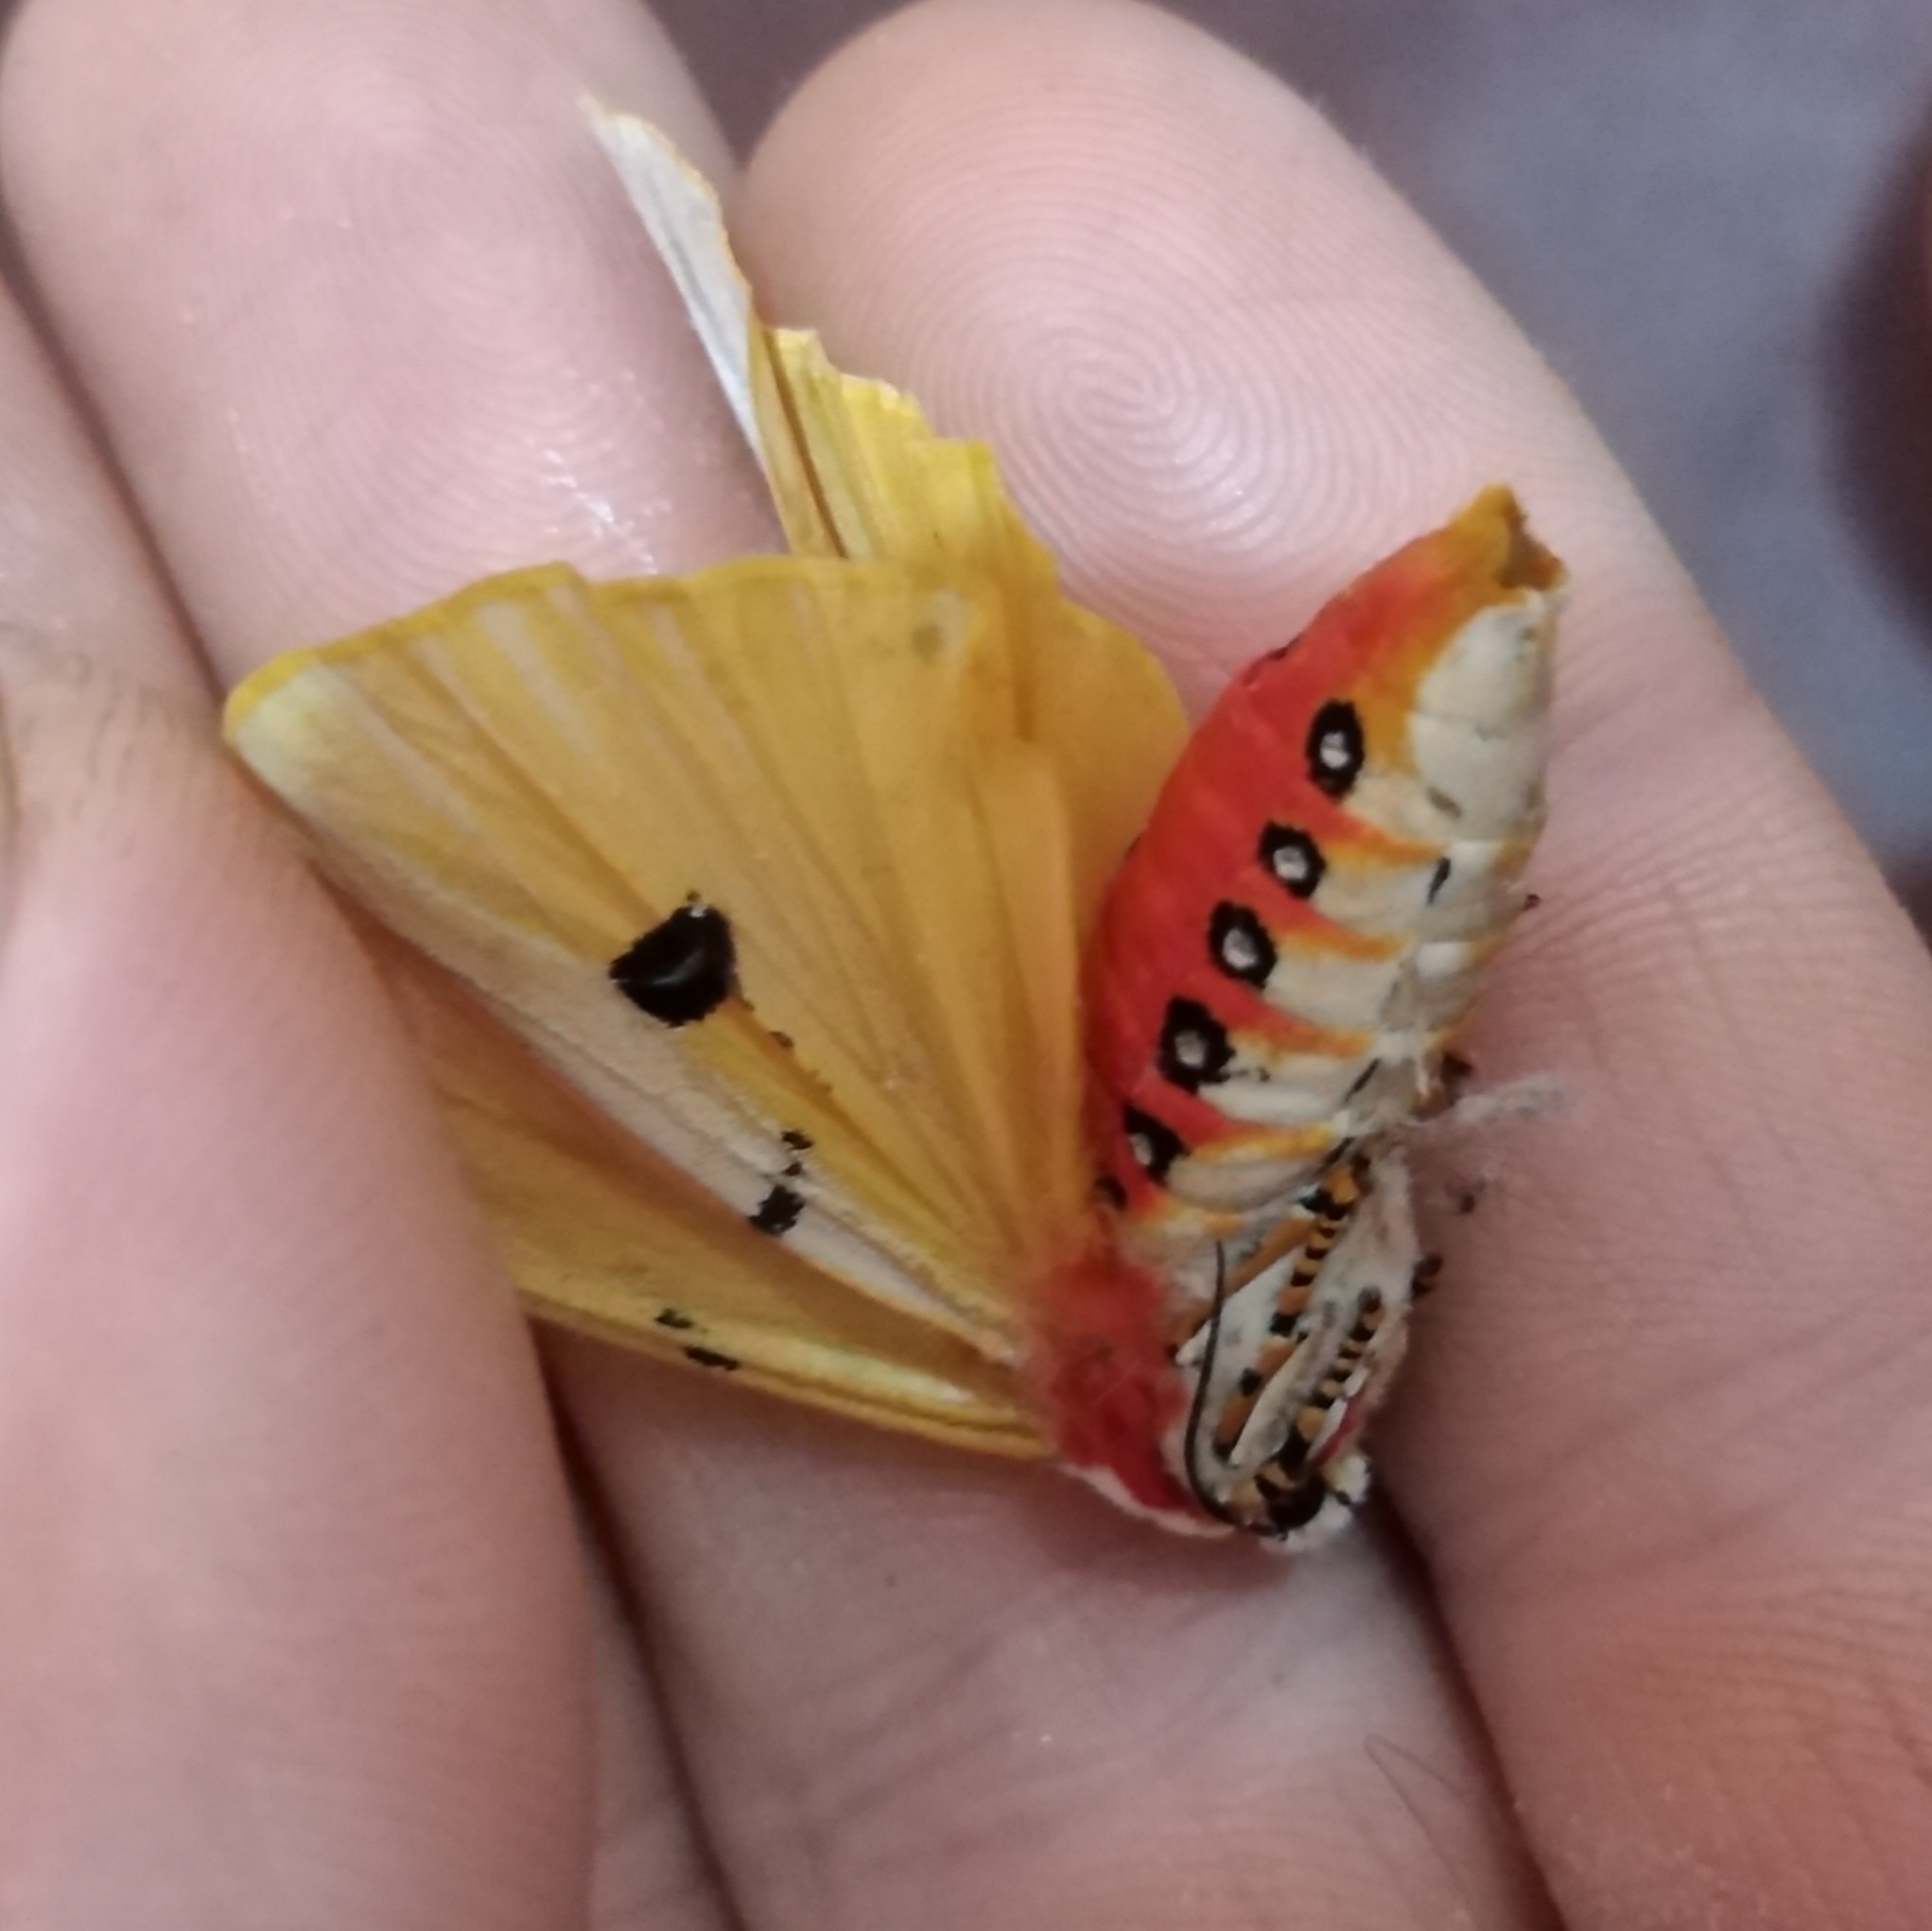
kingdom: Animalia
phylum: Arthropoda
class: Insecta
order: Lepidoptera
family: Erebidae
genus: Rhodogastria
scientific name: Rhodogastria similis
